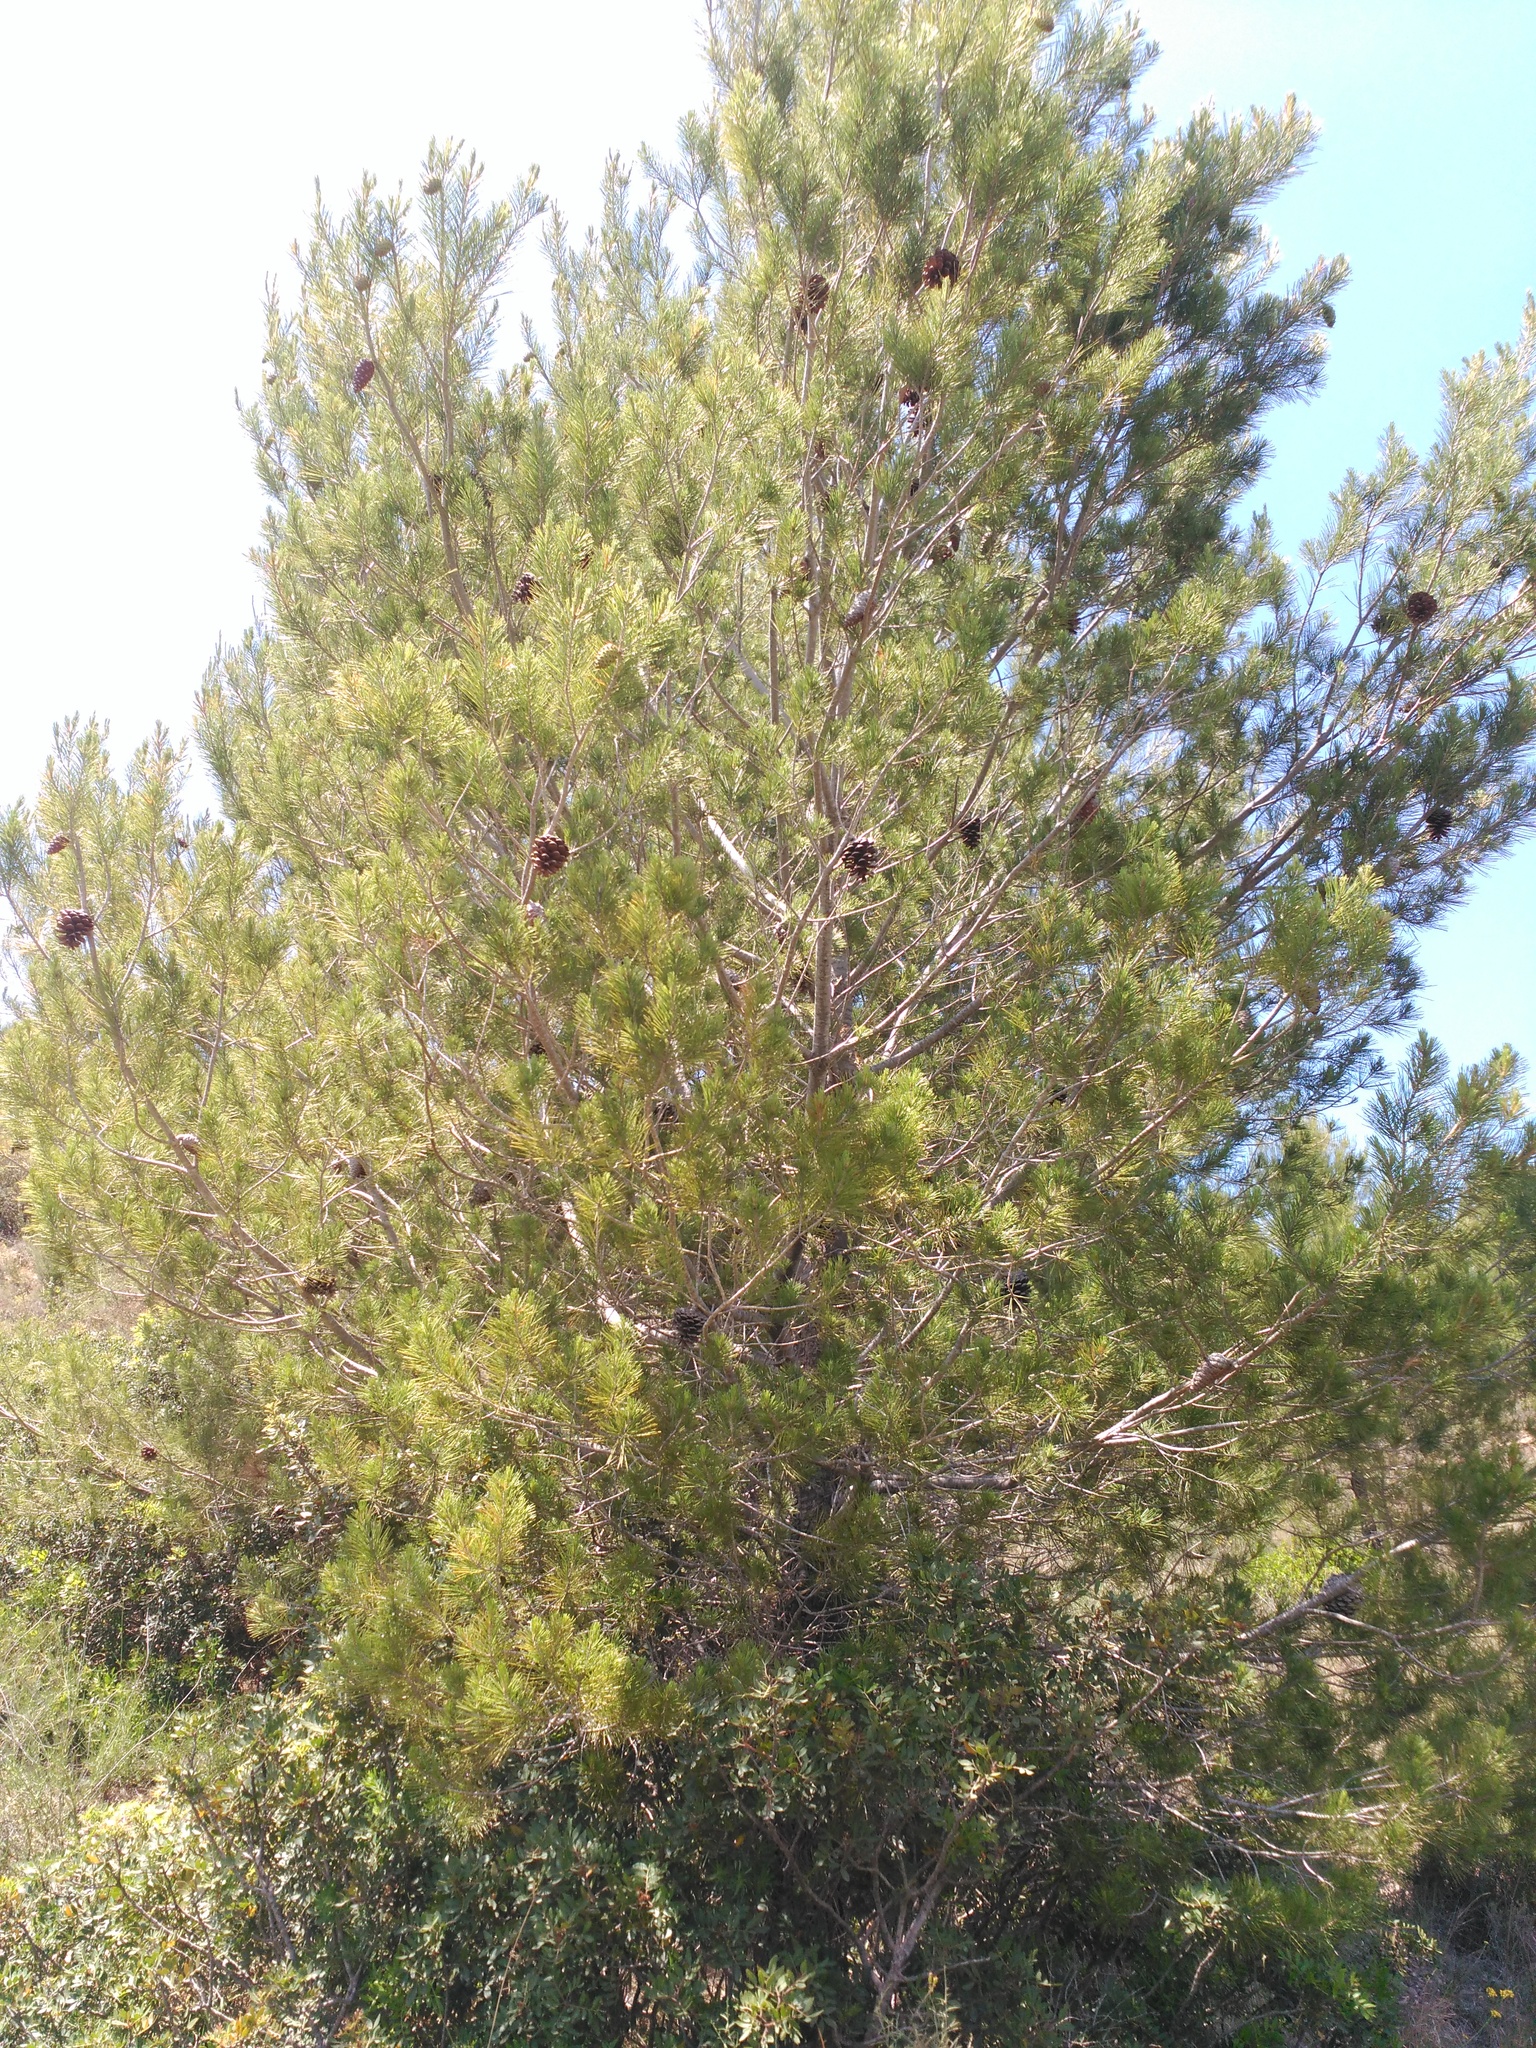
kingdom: Plantae
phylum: Tracheophyta
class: Pinopsida
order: Pinales
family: Pinaceae
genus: Pinus
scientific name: Pinus halepensis
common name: Aleppo pine
